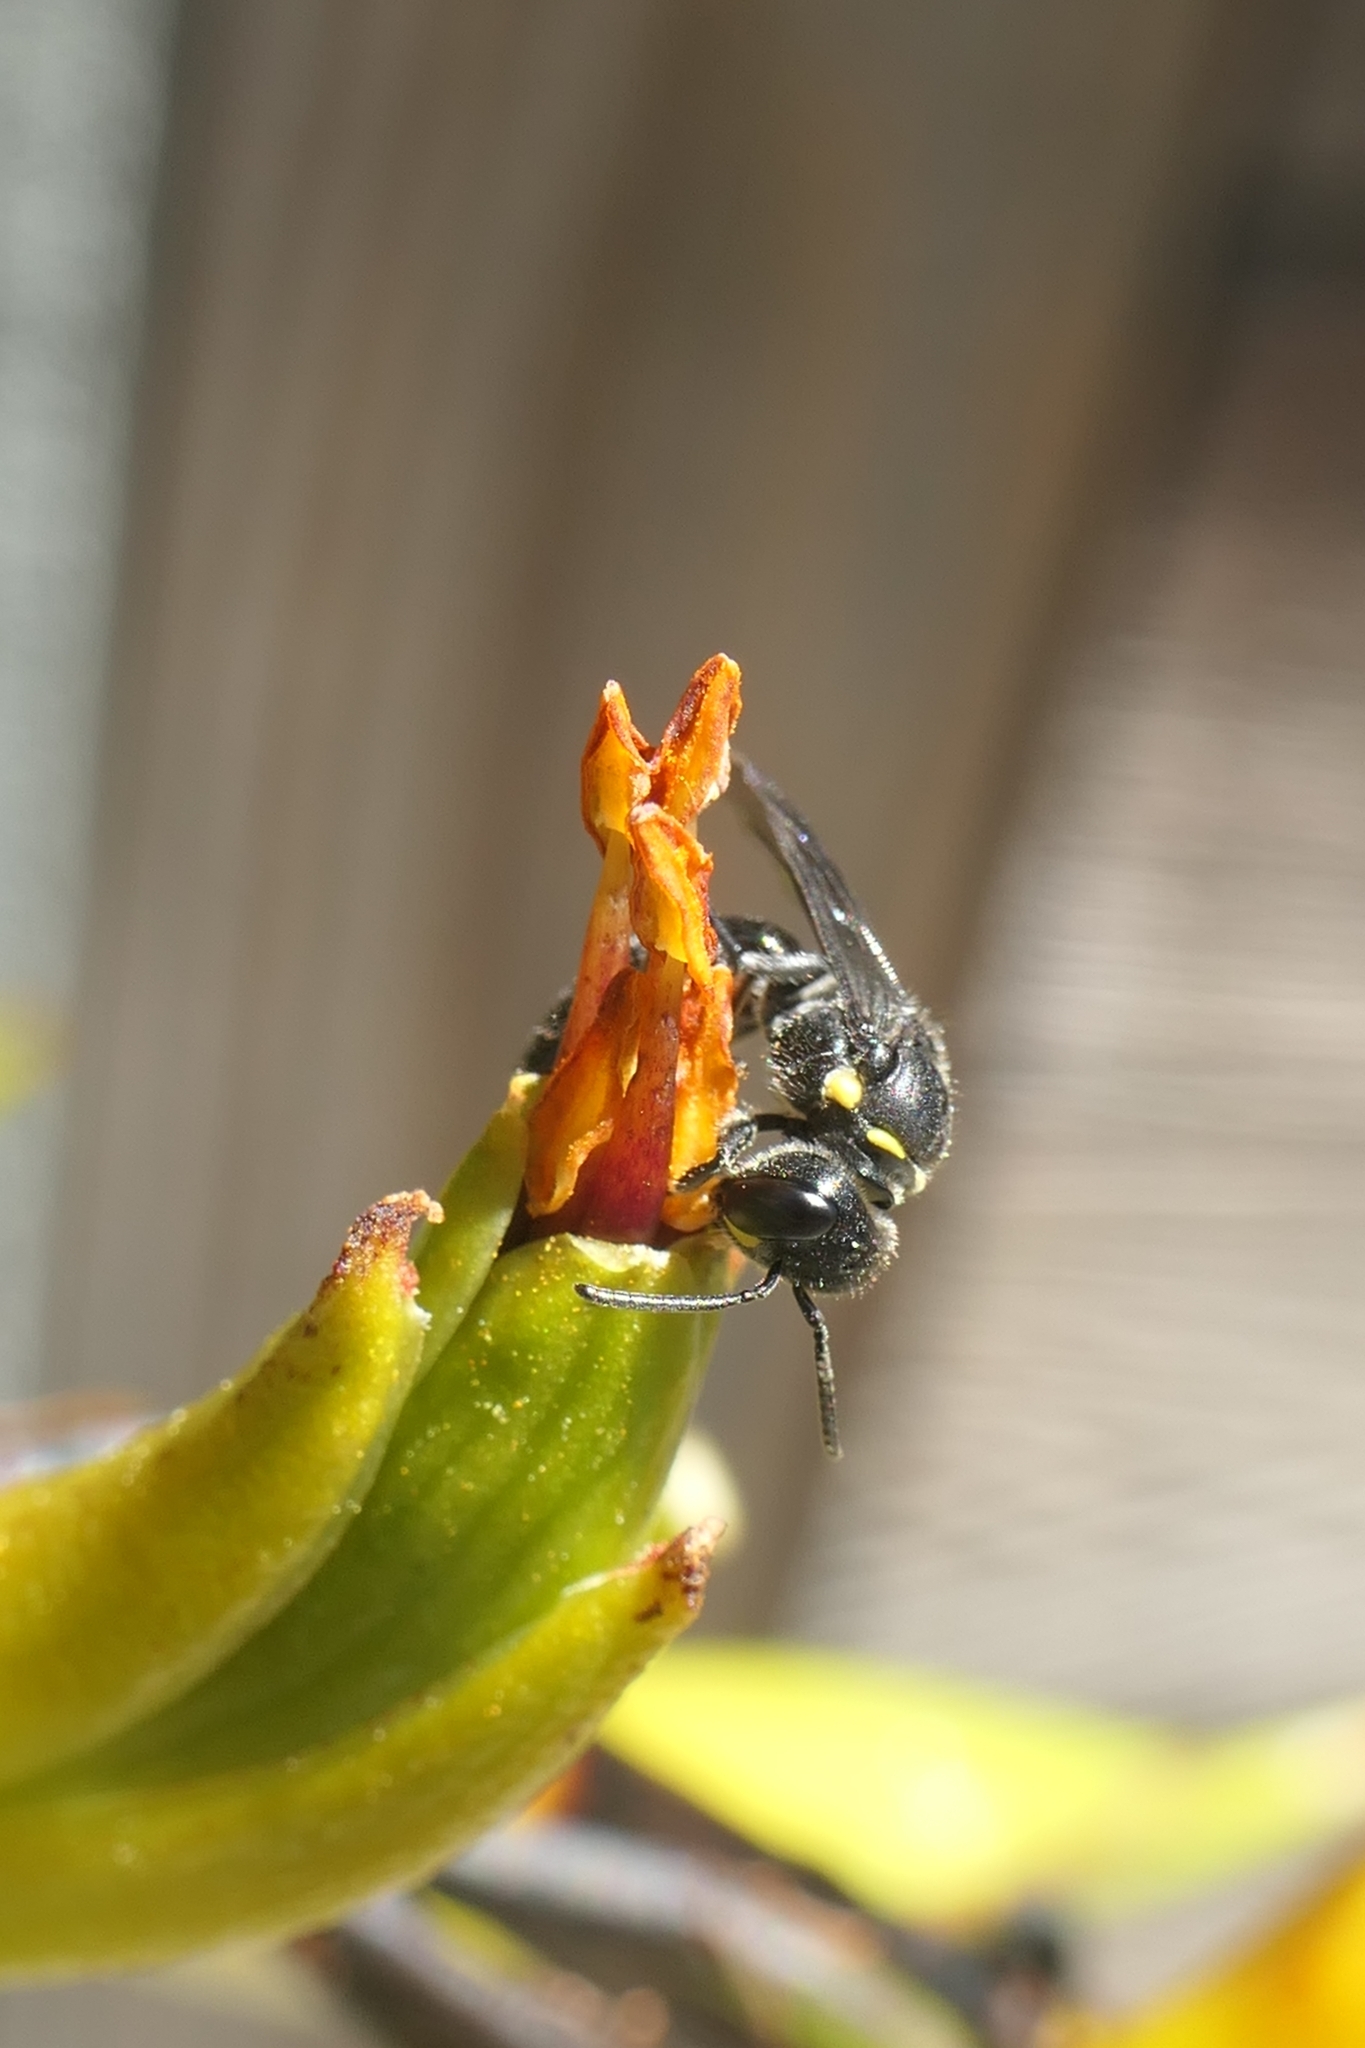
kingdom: Animalia
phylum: Arthropoda
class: Insecta
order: Hymenoptera
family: Colletidae
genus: Hylaeus
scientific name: Hylaeus relegatus
